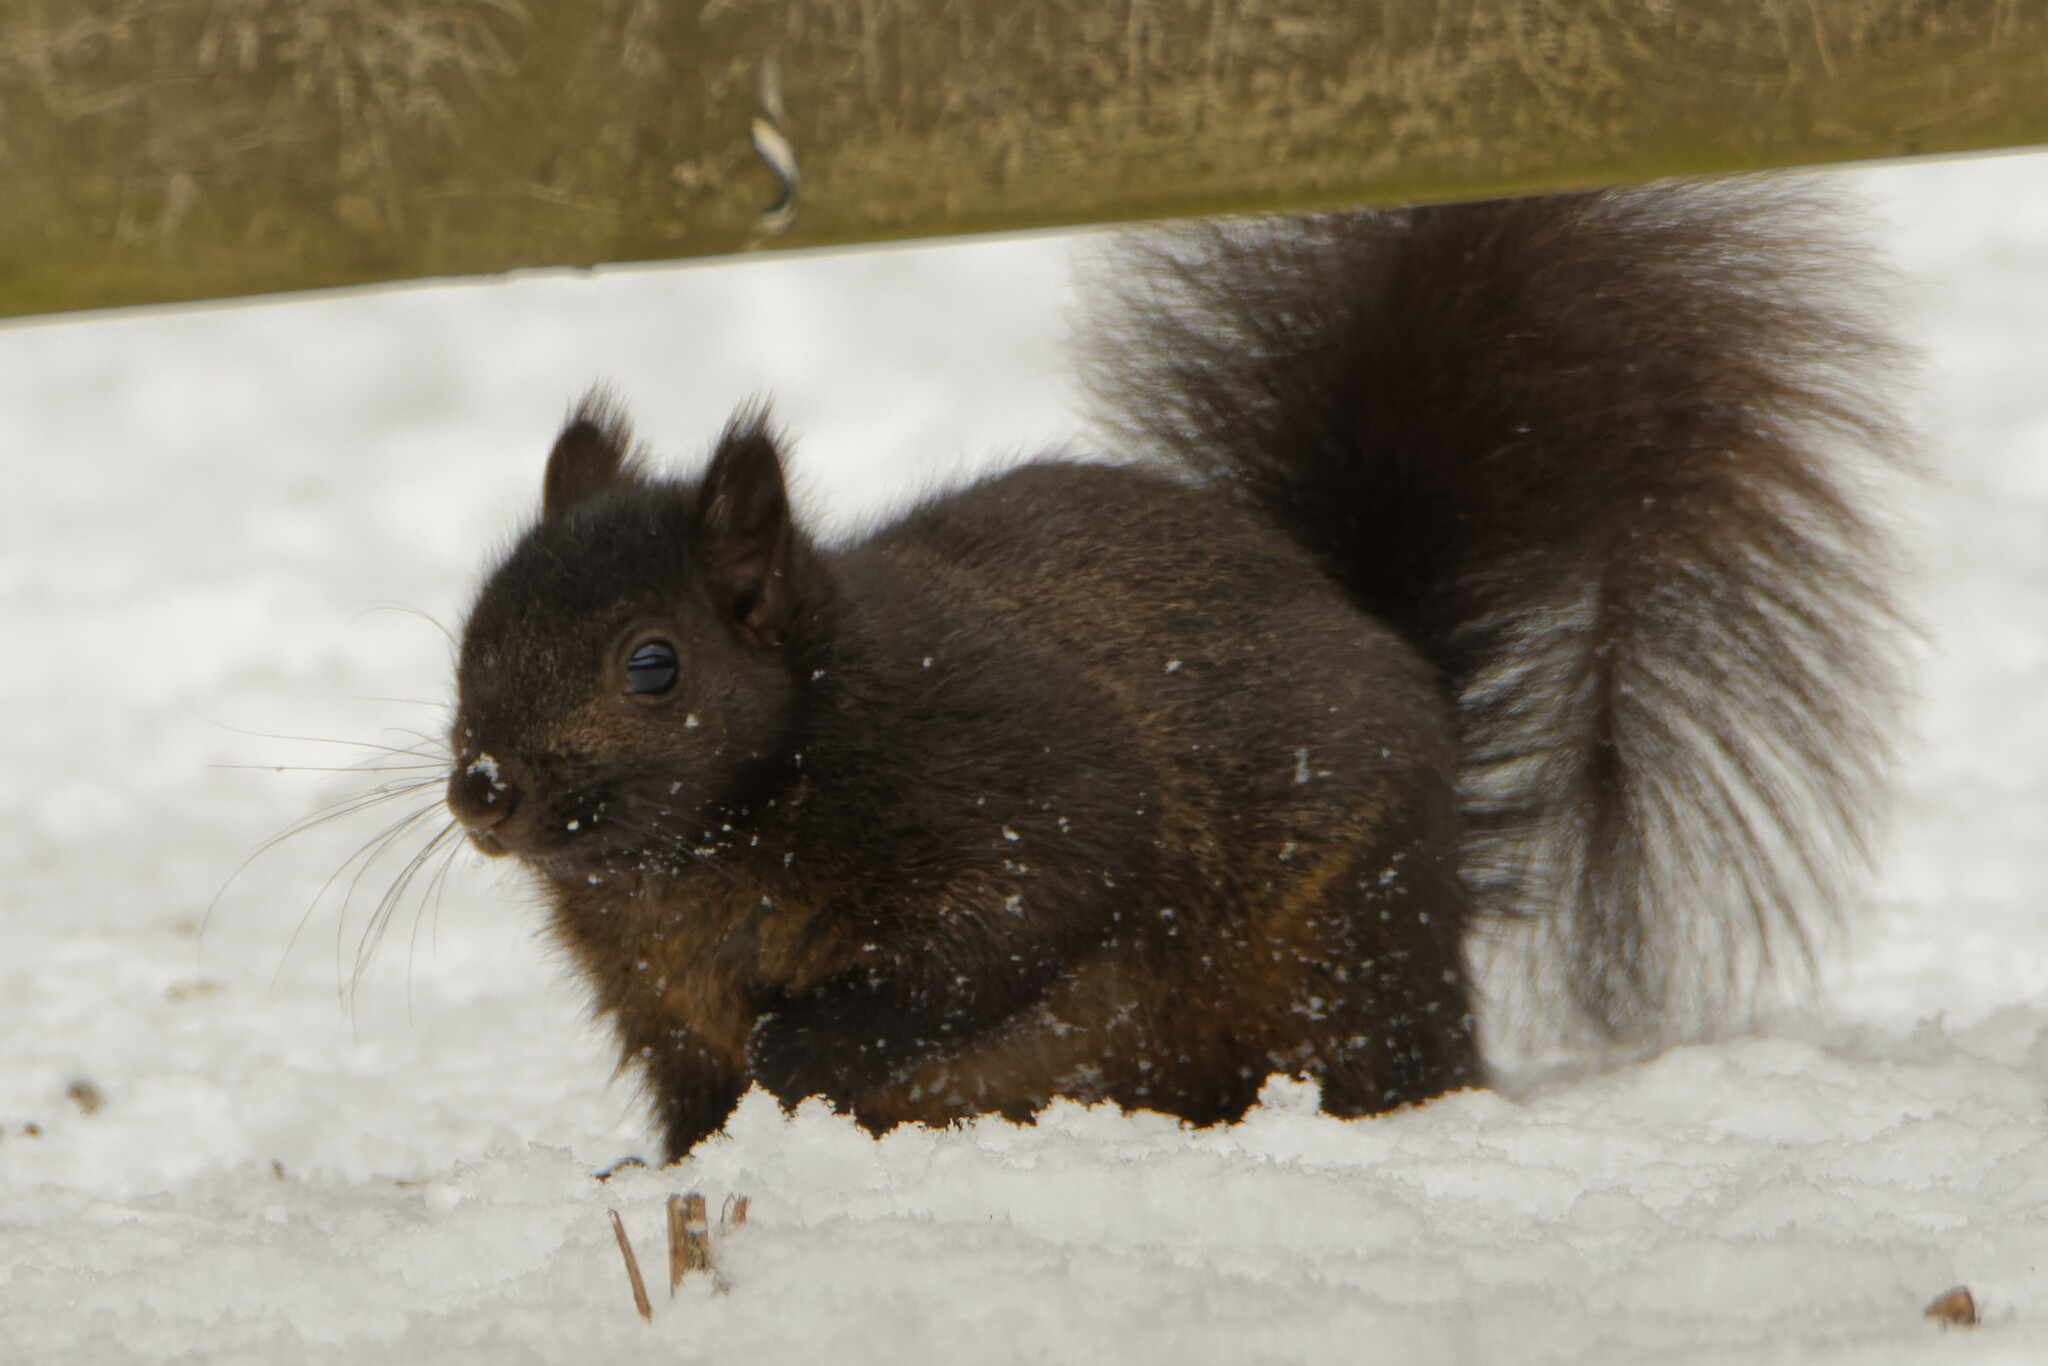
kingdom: Animalia
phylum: Chordata
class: Mammalia
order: Rodentia
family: Sciuridae
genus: Sciurus
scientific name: Sciurus carolinensis
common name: Eastern gray squirrel
